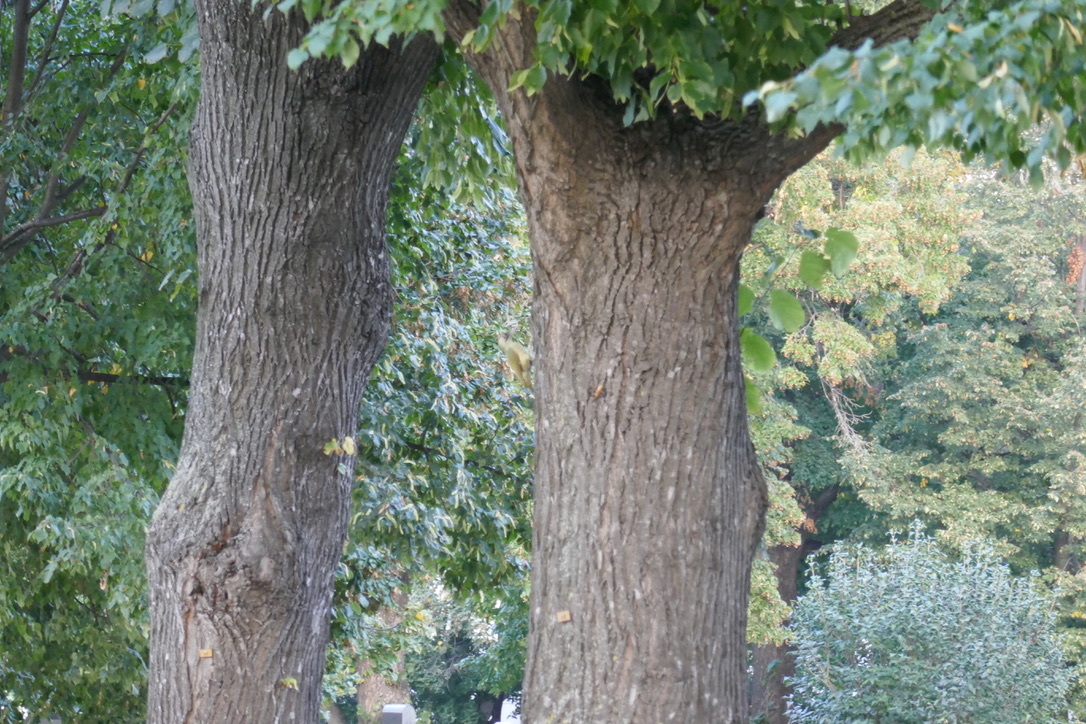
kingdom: Animalia
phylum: Chordata
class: Aves
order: Piciformes
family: Picidae
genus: Picus
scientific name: Picus viridis
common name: European green woodpecker
